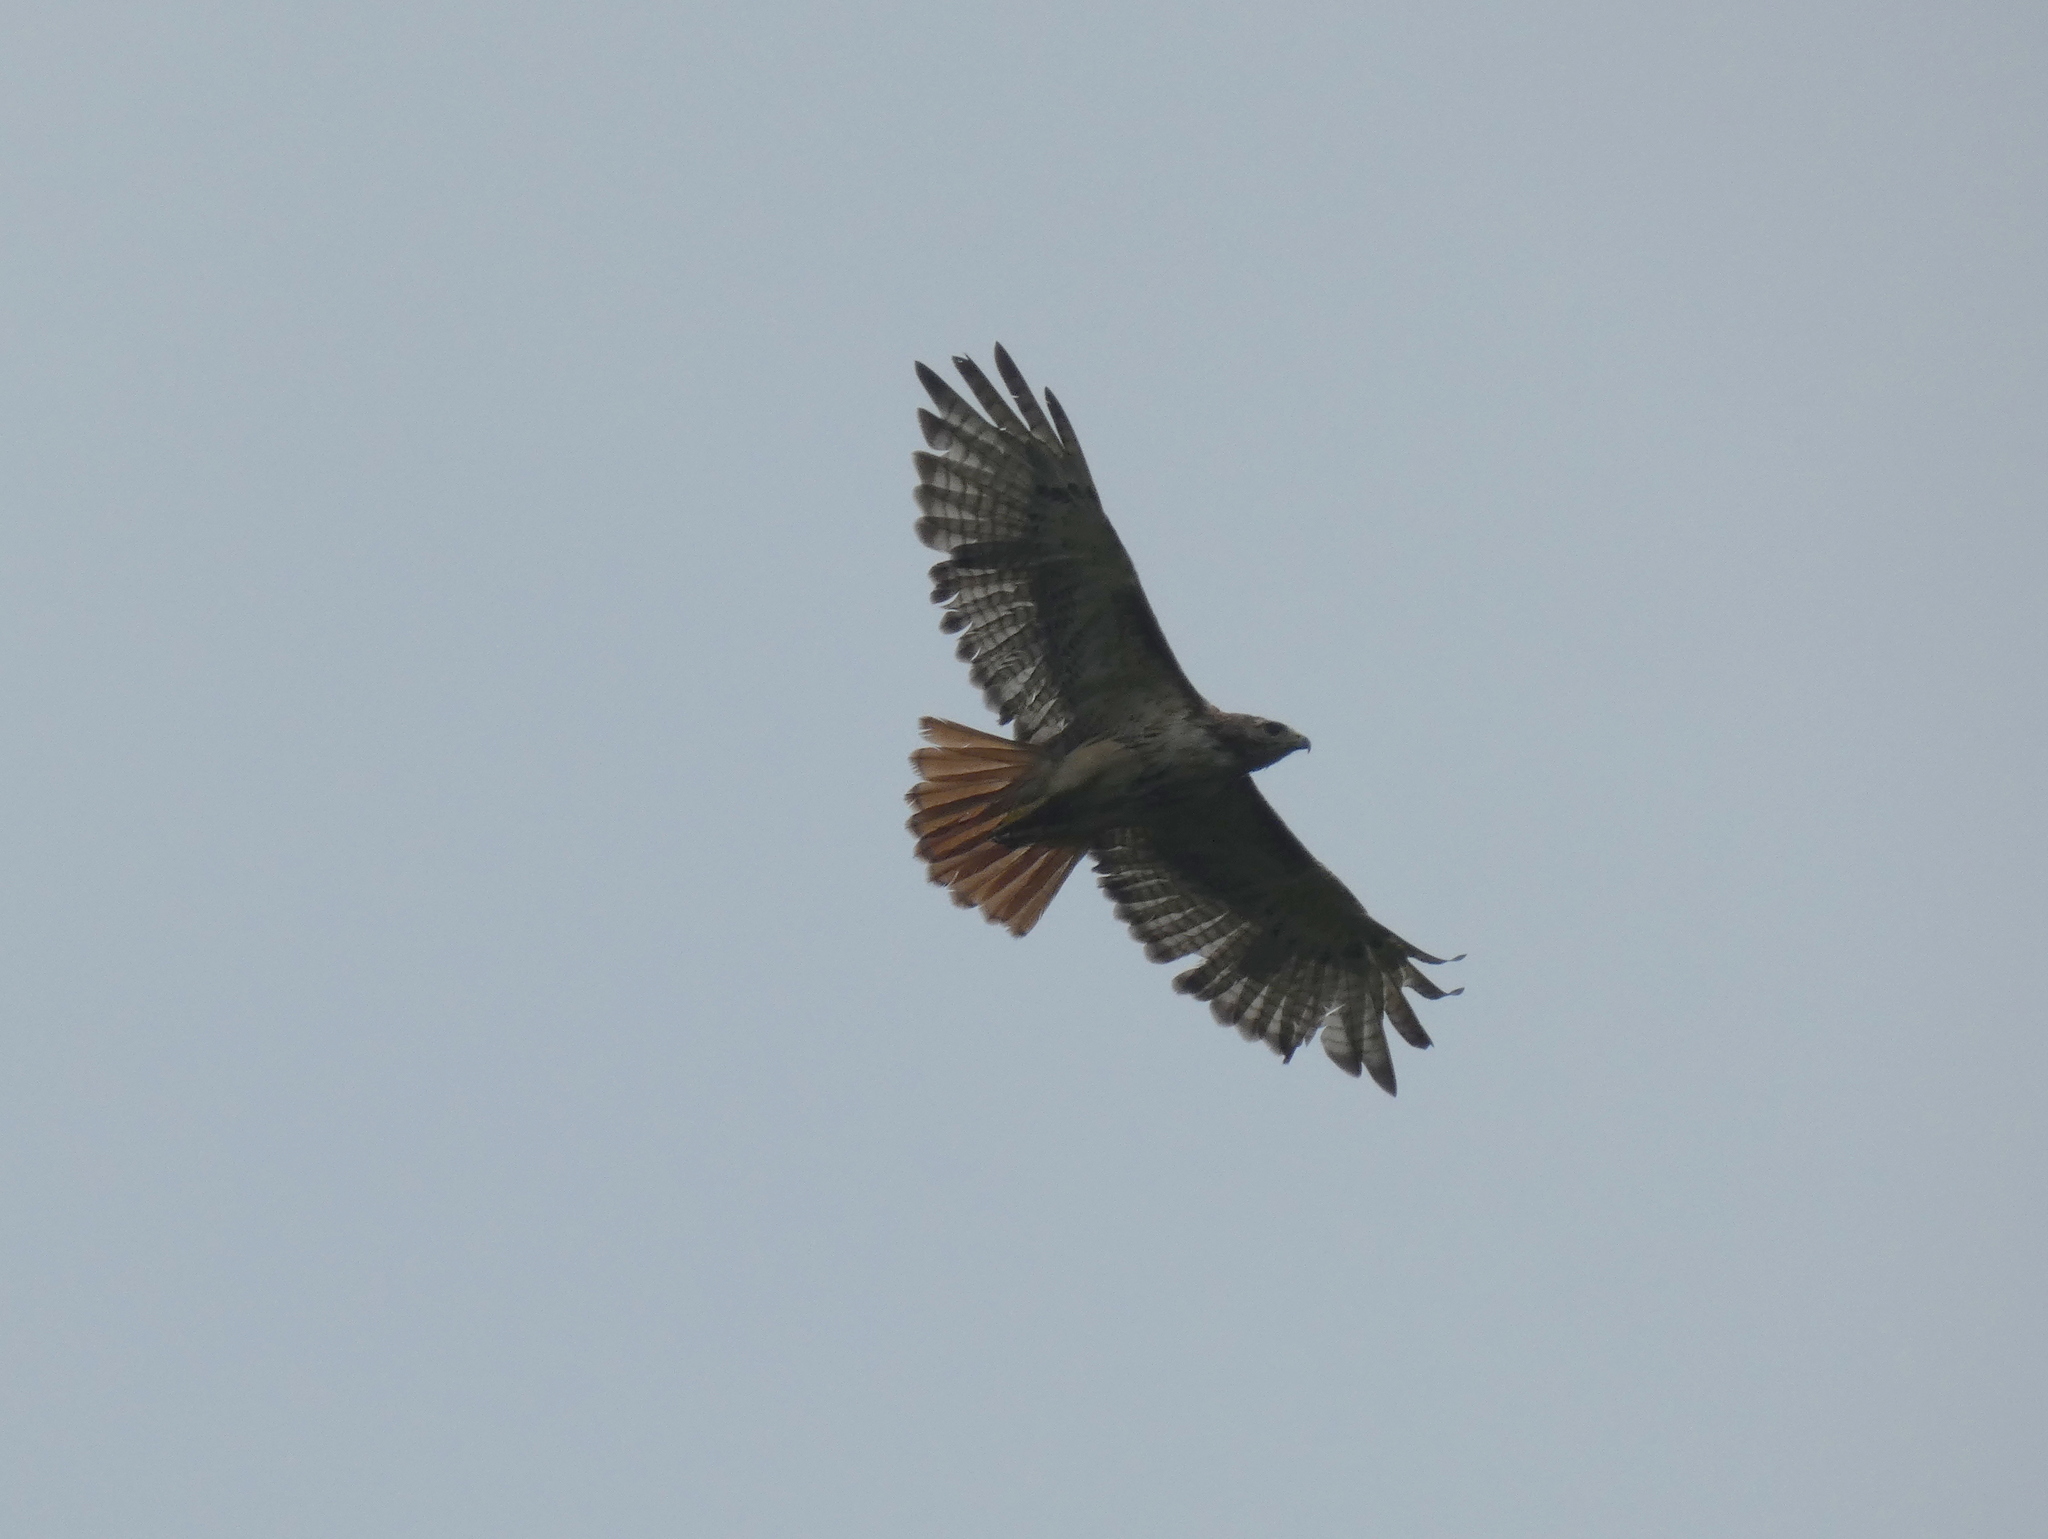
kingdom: Animalia
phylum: Chordata
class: Aves
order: Accipitriformes
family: Accipitridae
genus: Buteo
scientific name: Buteo jamaicensis
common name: Red-tailed hawk
